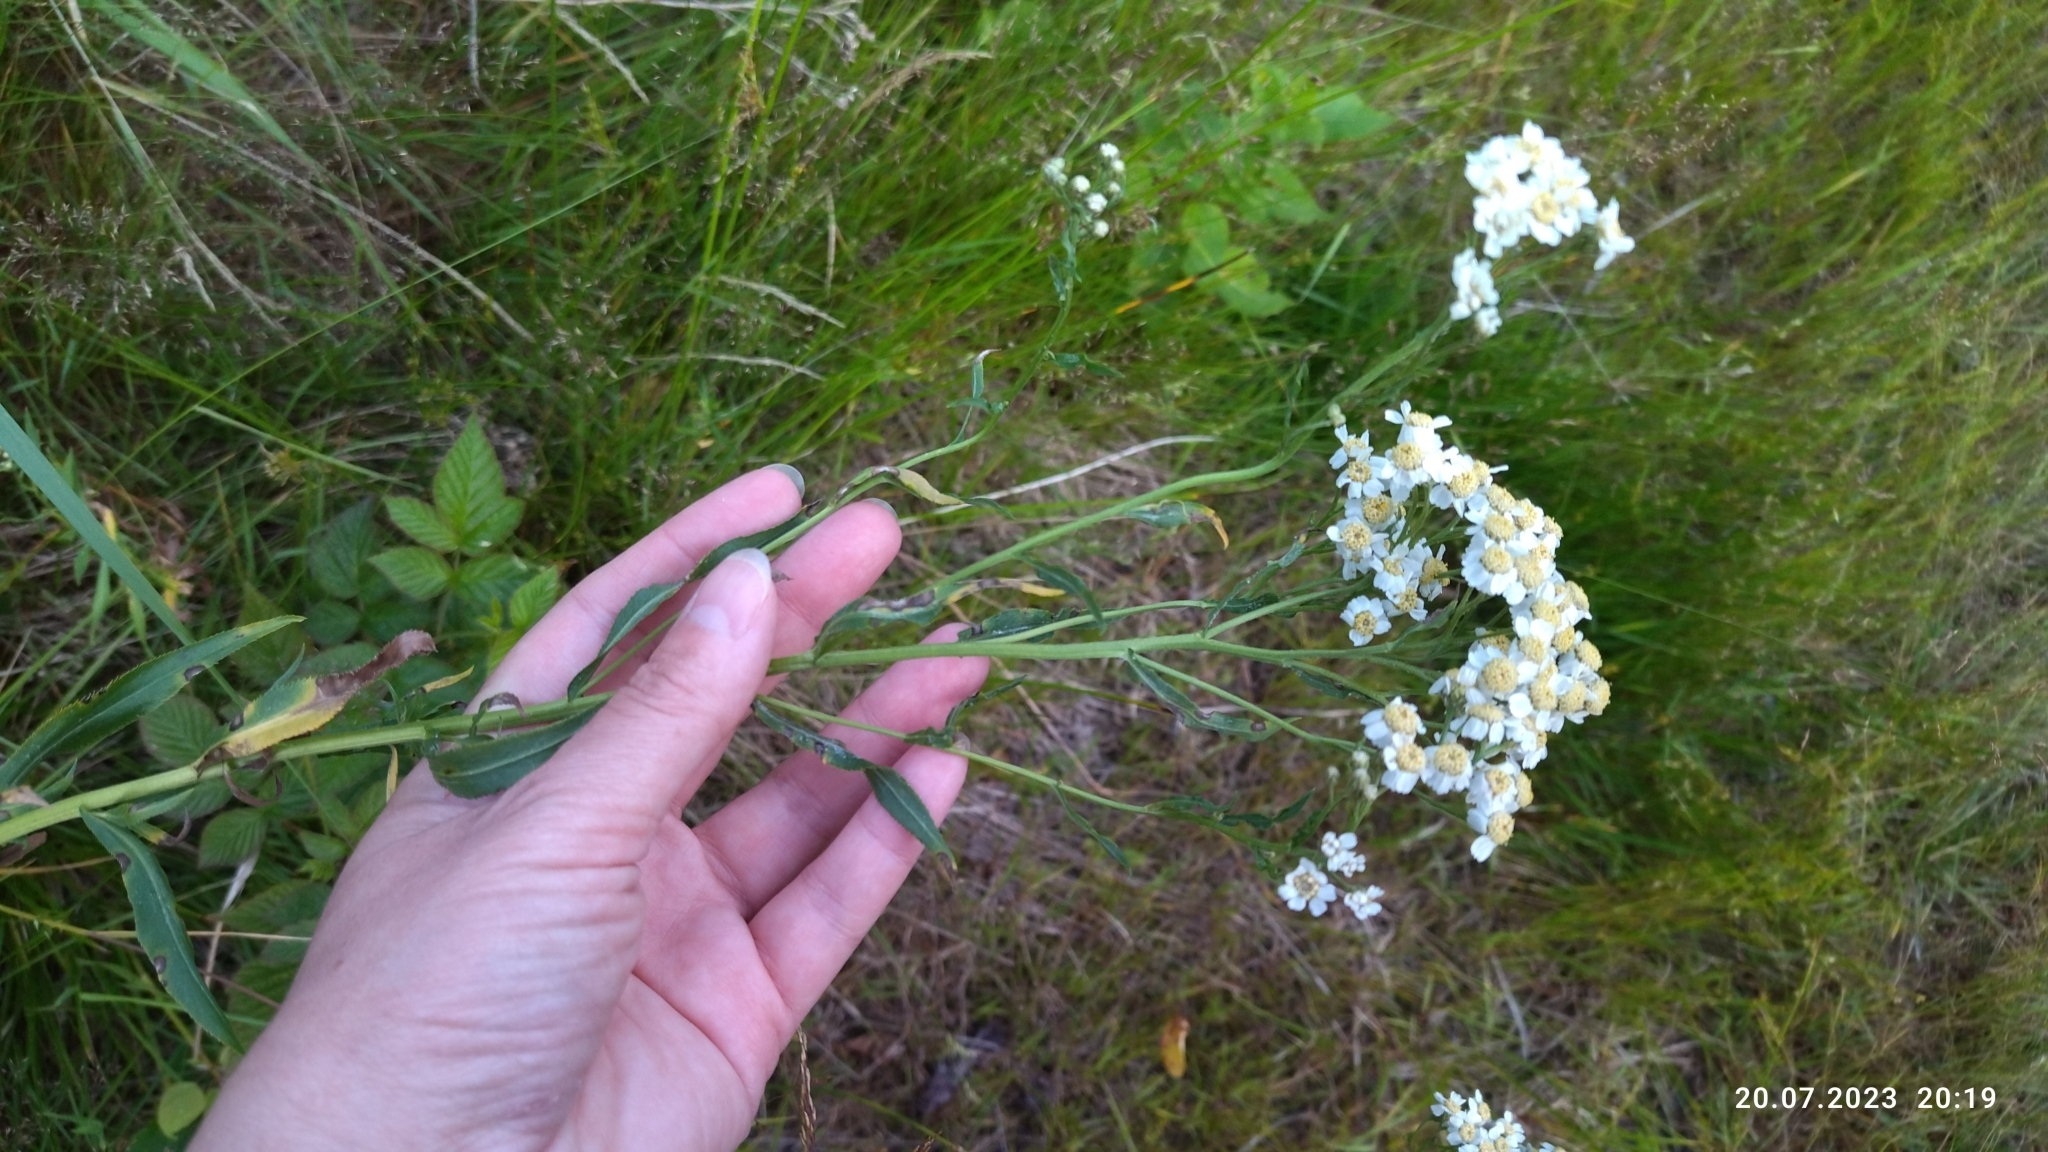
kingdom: Plantae
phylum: Tracheophyta
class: Magnoliopsida
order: Asterales
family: Asteraceae
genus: Achillea
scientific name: Achillea salicifolia
